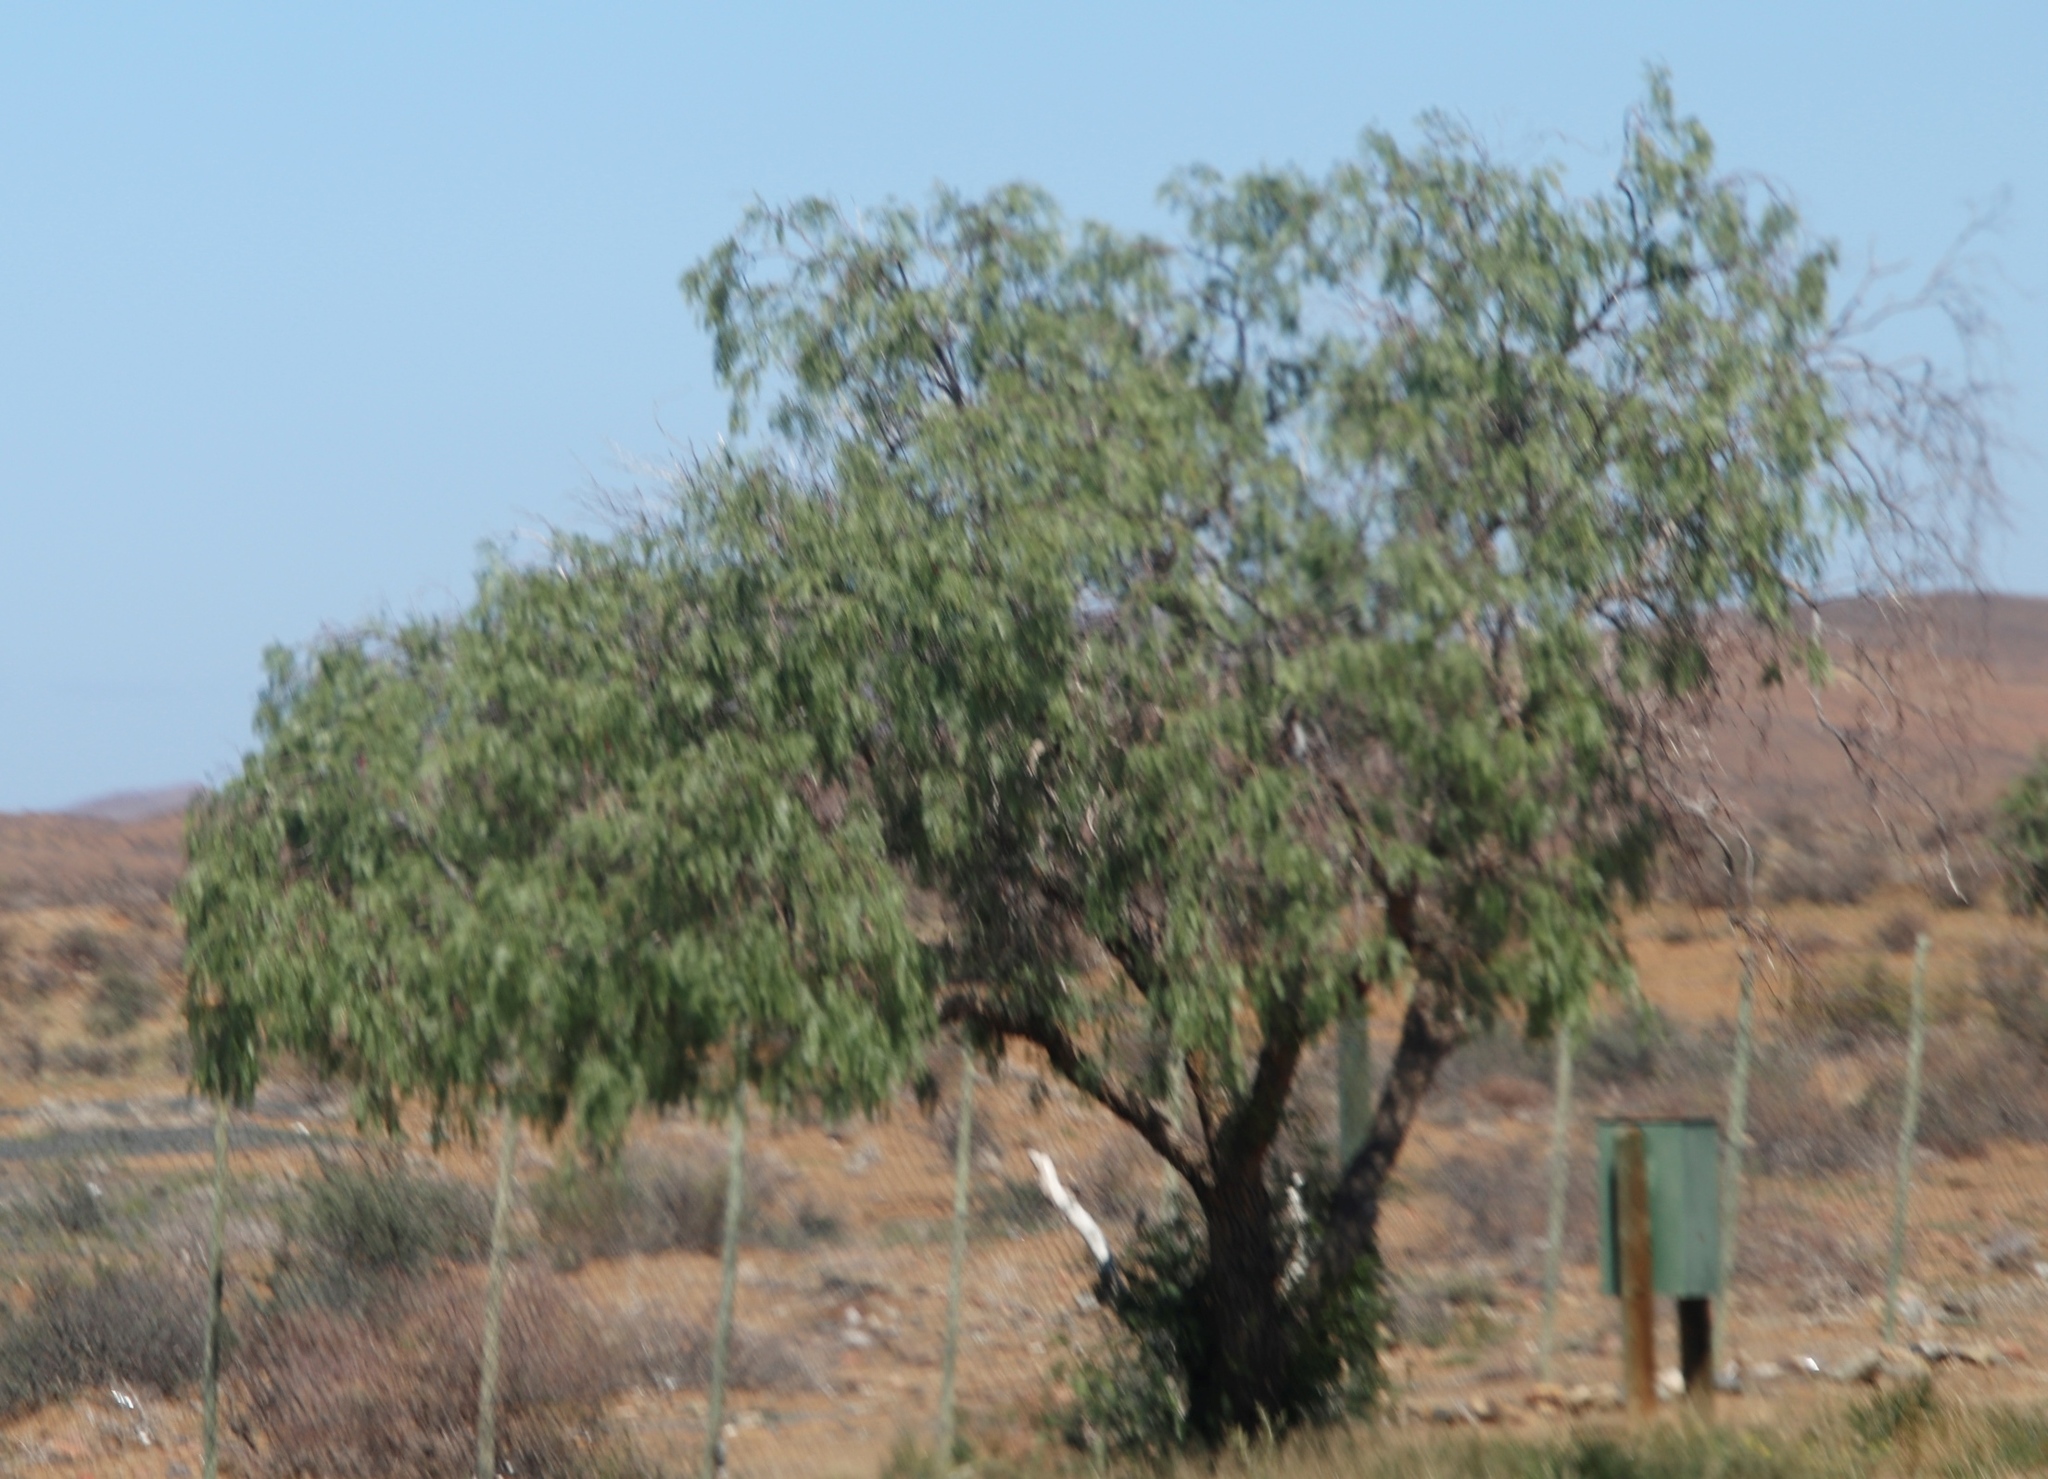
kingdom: Plantae
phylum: Tracheophyta
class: Magnoliopsida
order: Sapindales
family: Anacardiaceae
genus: Schinus
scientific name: Schinus molle
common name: Peruvian peppertree
